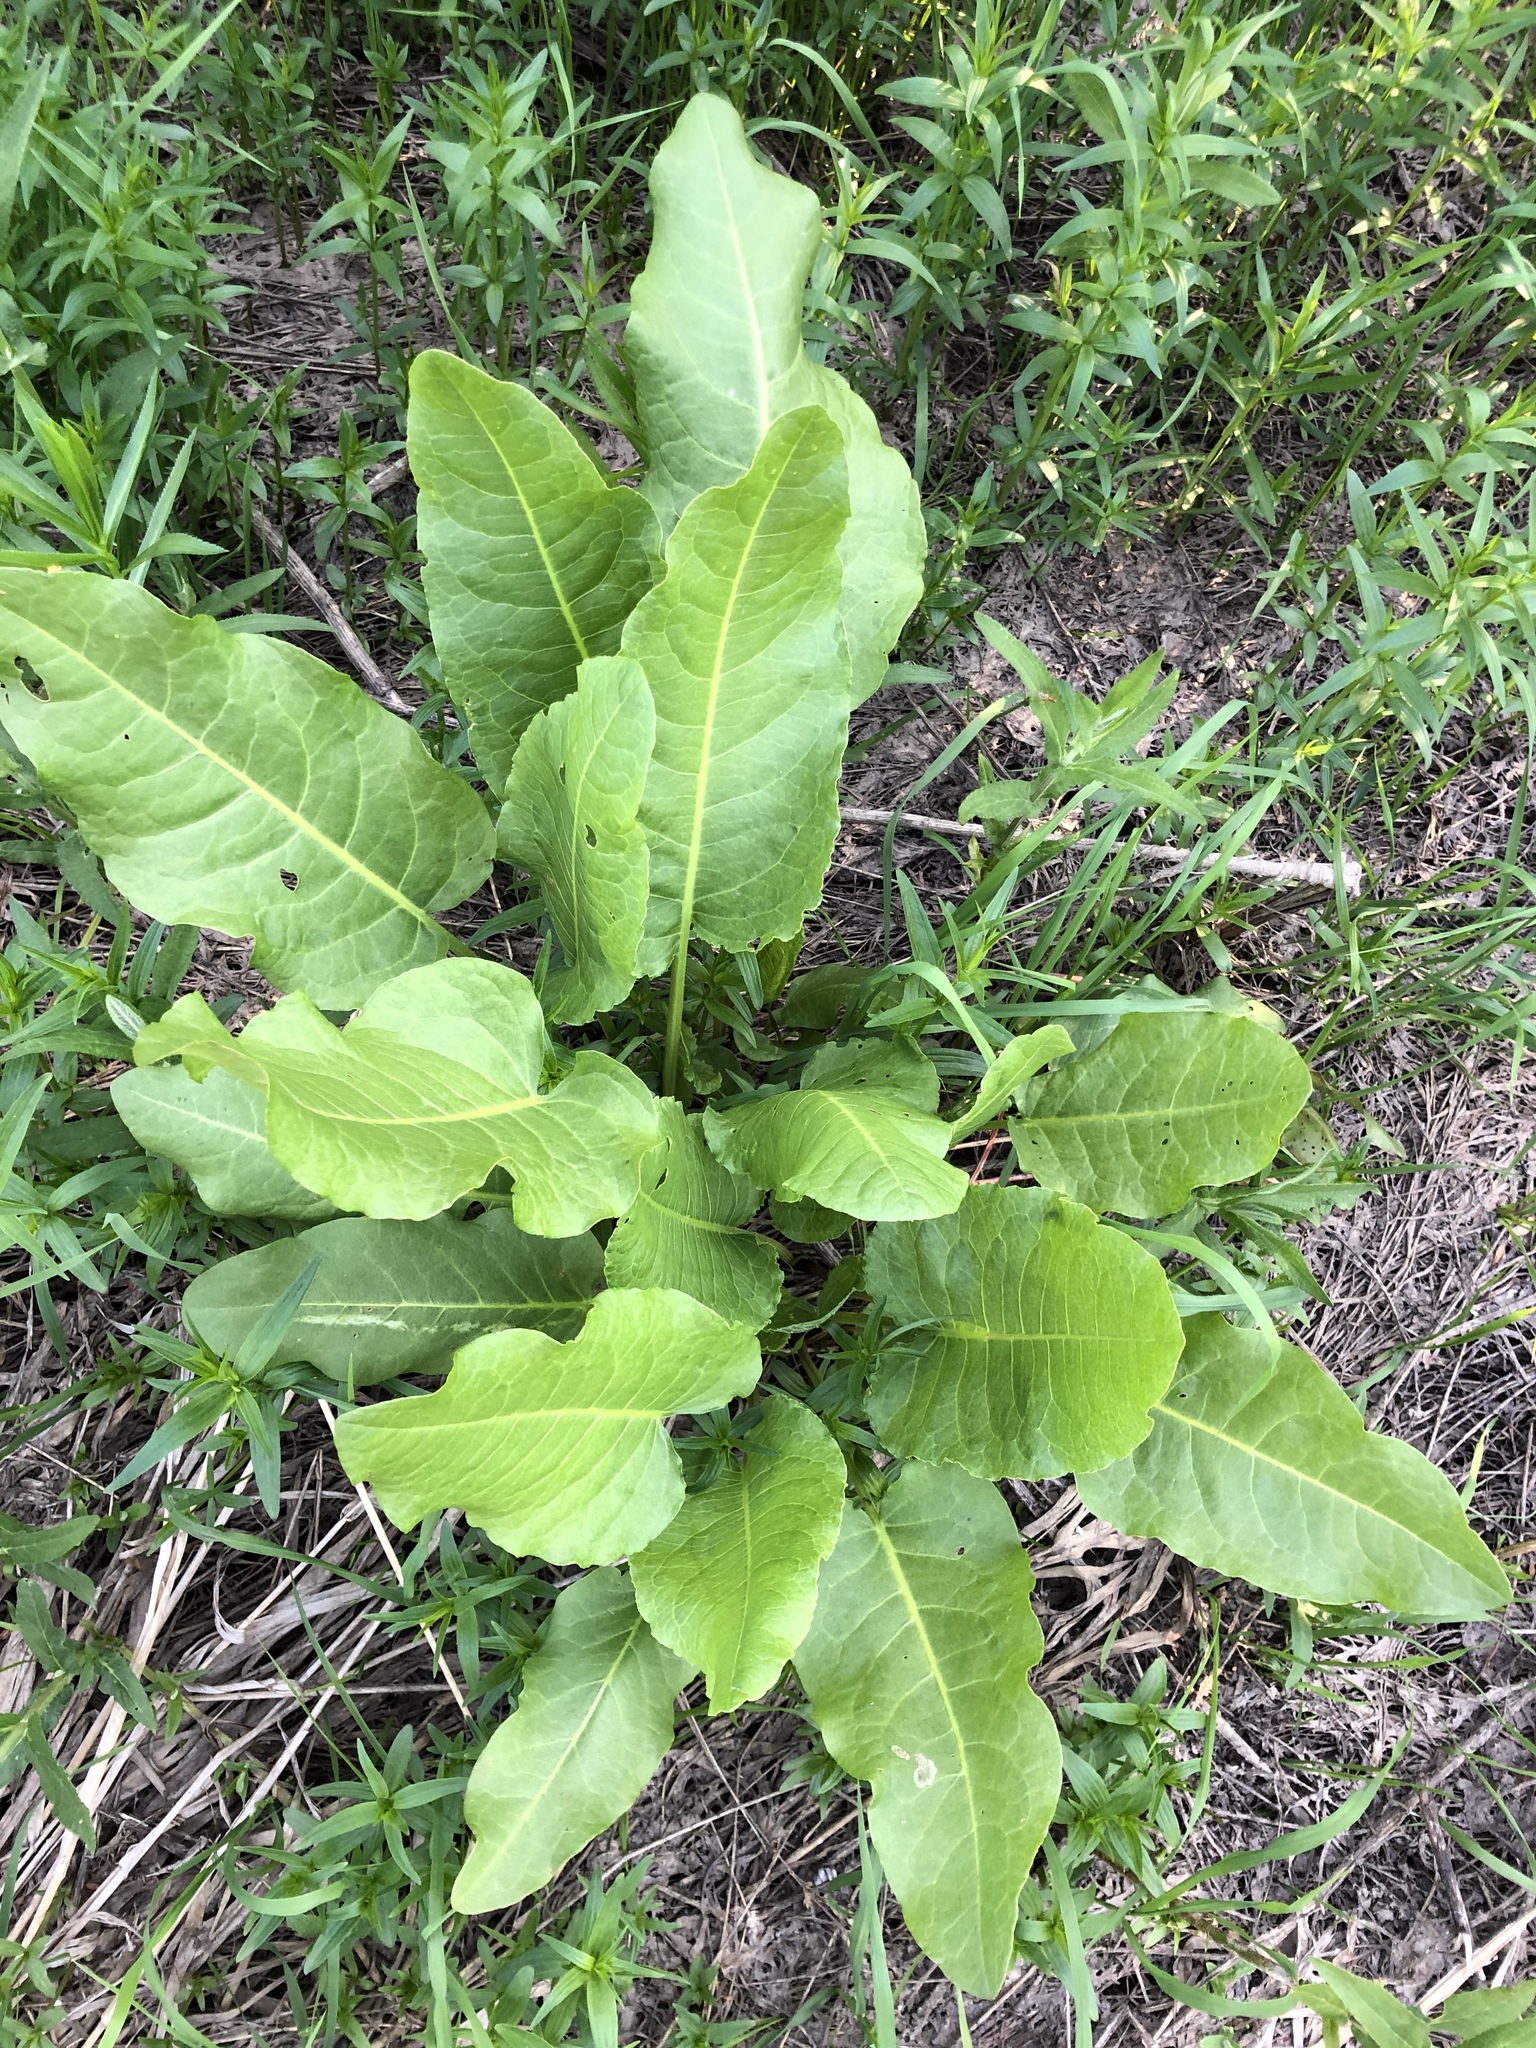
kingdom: Plantae
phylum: Tracheophyta
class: Magnoliopsida
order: Caryophyllales
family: Polygonaceae
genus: Rumex
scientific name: Rumex confertus
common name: Russian dock
